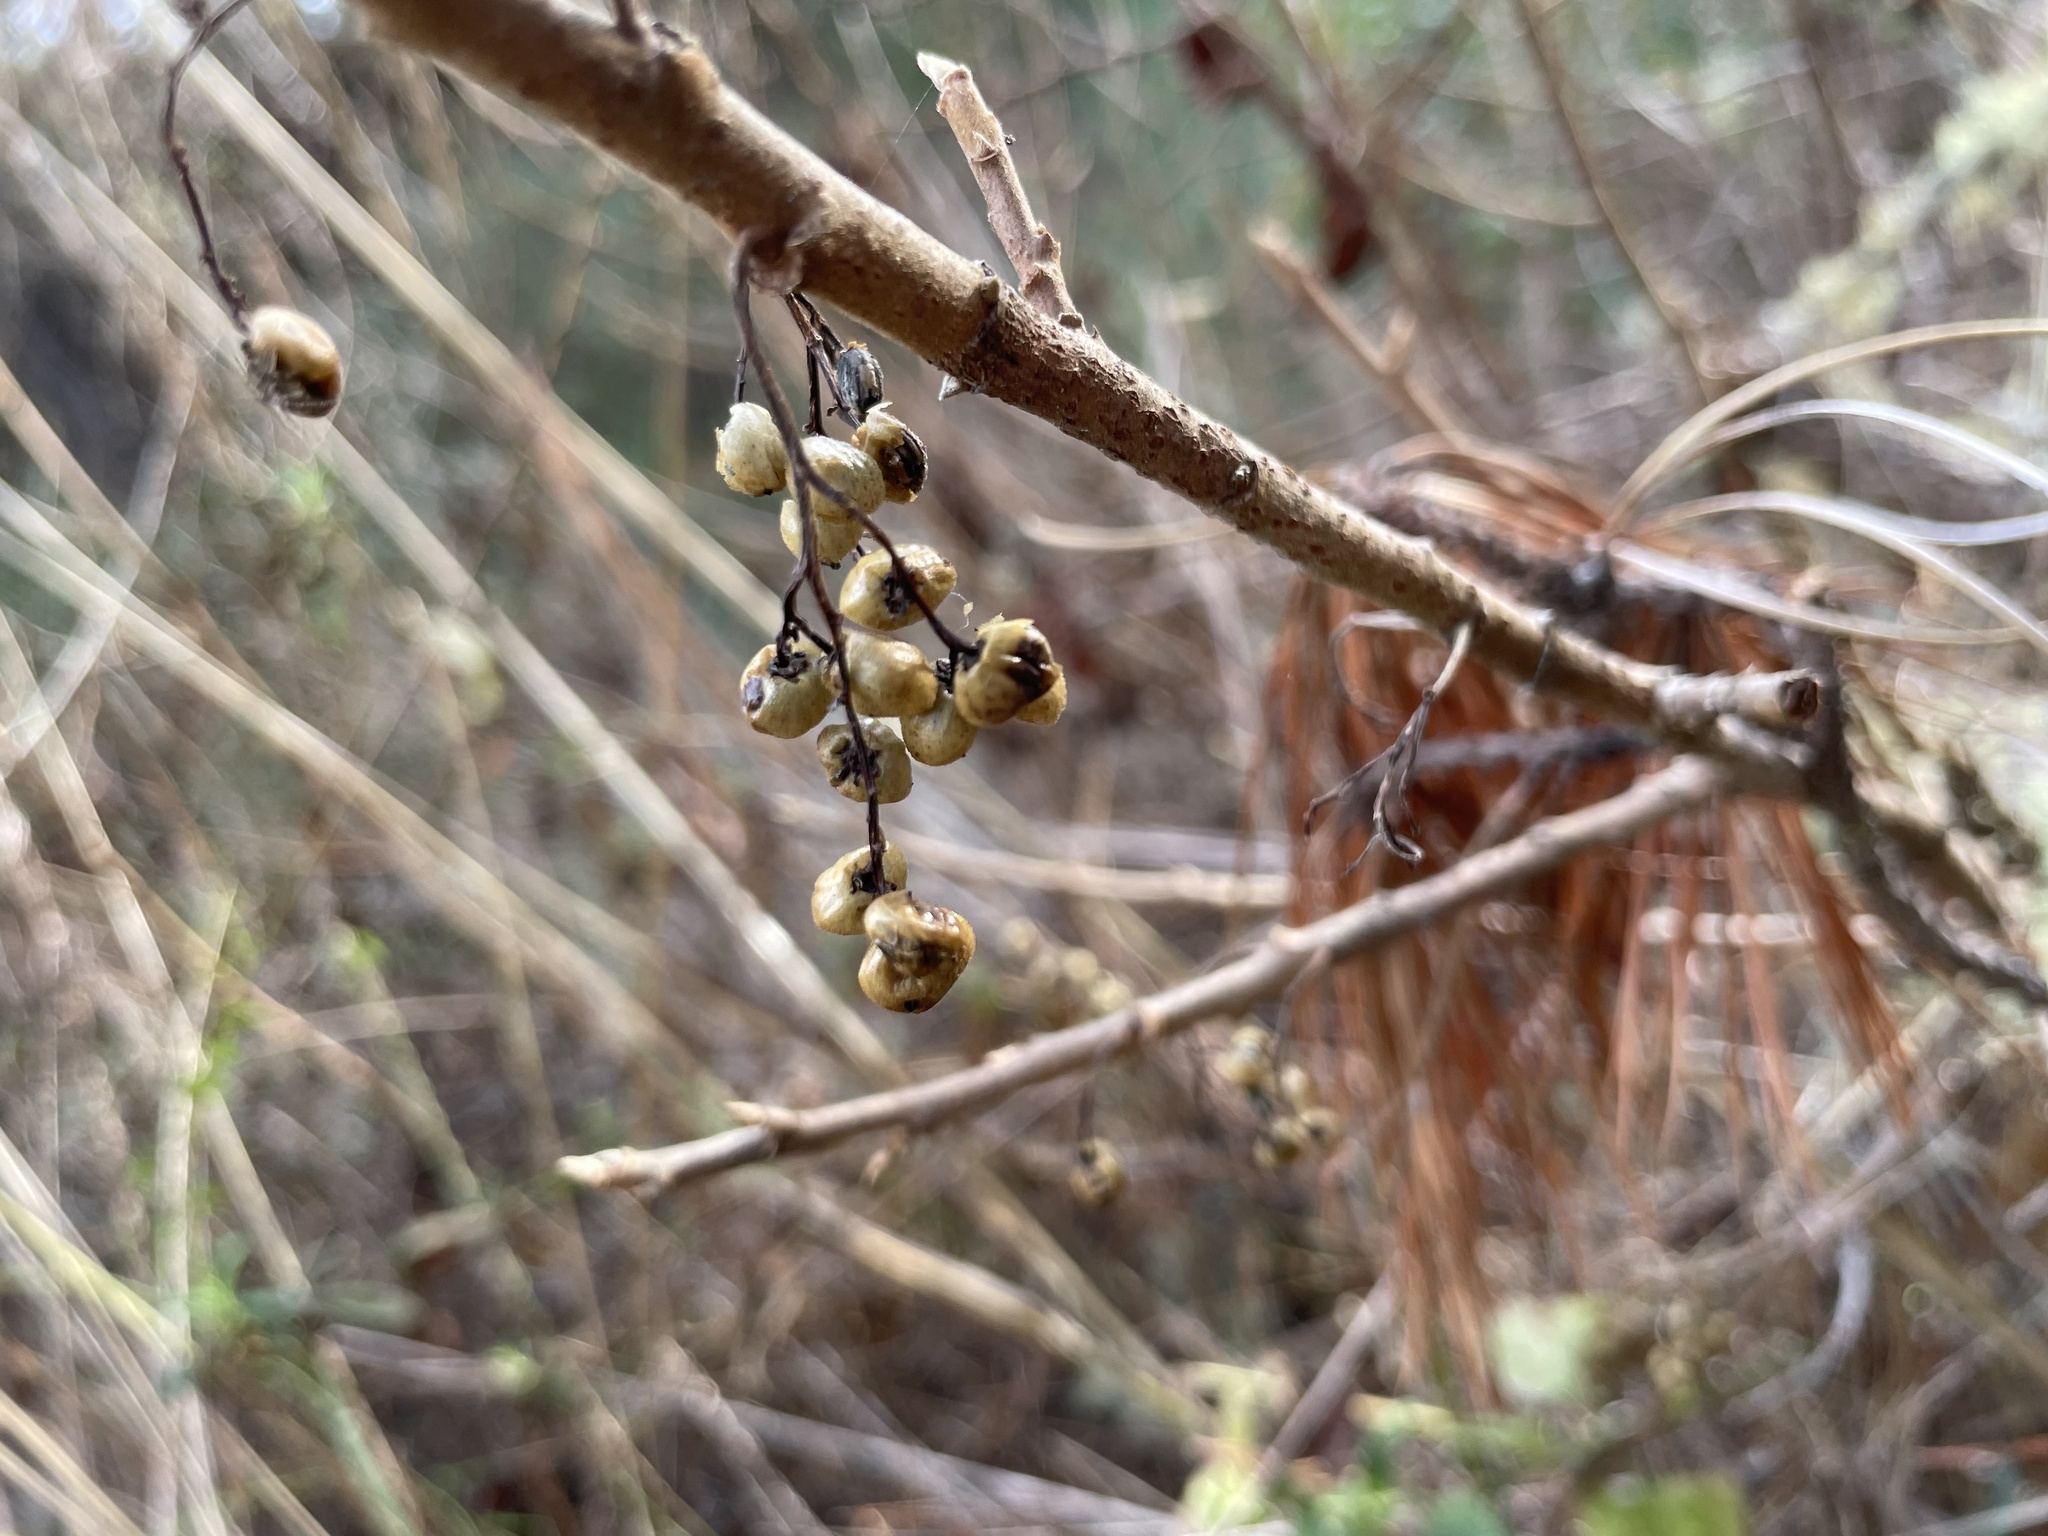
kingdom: Plantae
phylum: Tracheophyta
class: Magnoliopsida
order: Sapindales
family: Anacardiaceae
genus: Toxicodendron
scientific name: Toxicodendron diversilobum
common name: Pacific poison-oak
